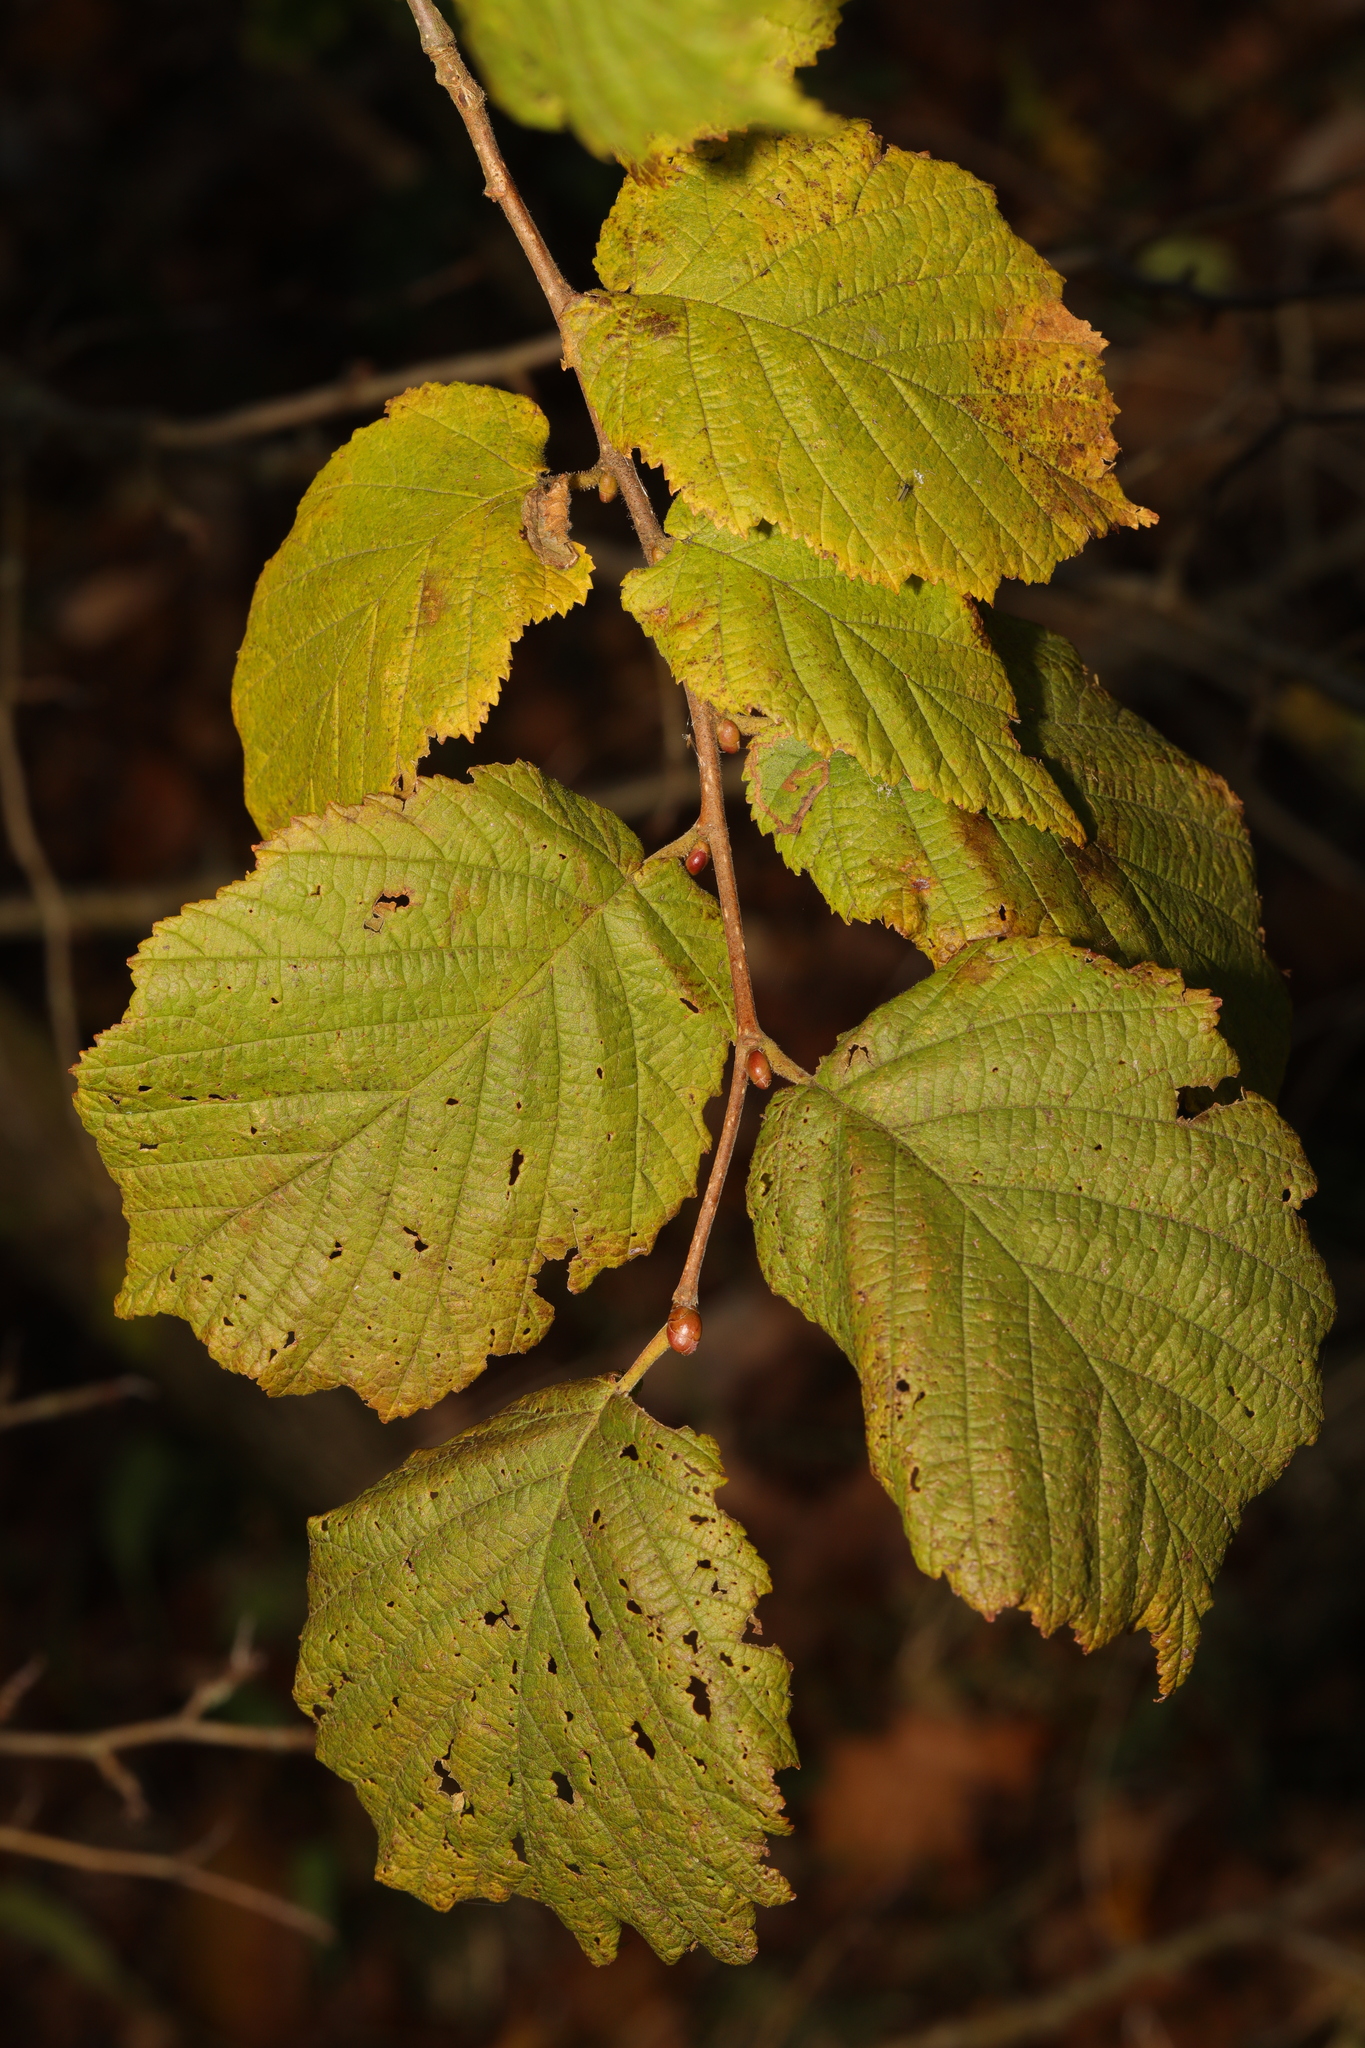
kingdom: Plantae
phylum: Tracheophyta
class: Magnoliopsida
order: Fagales
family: Betulaceae
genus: Corylus
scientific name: Corylus avellana
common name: European hazel
